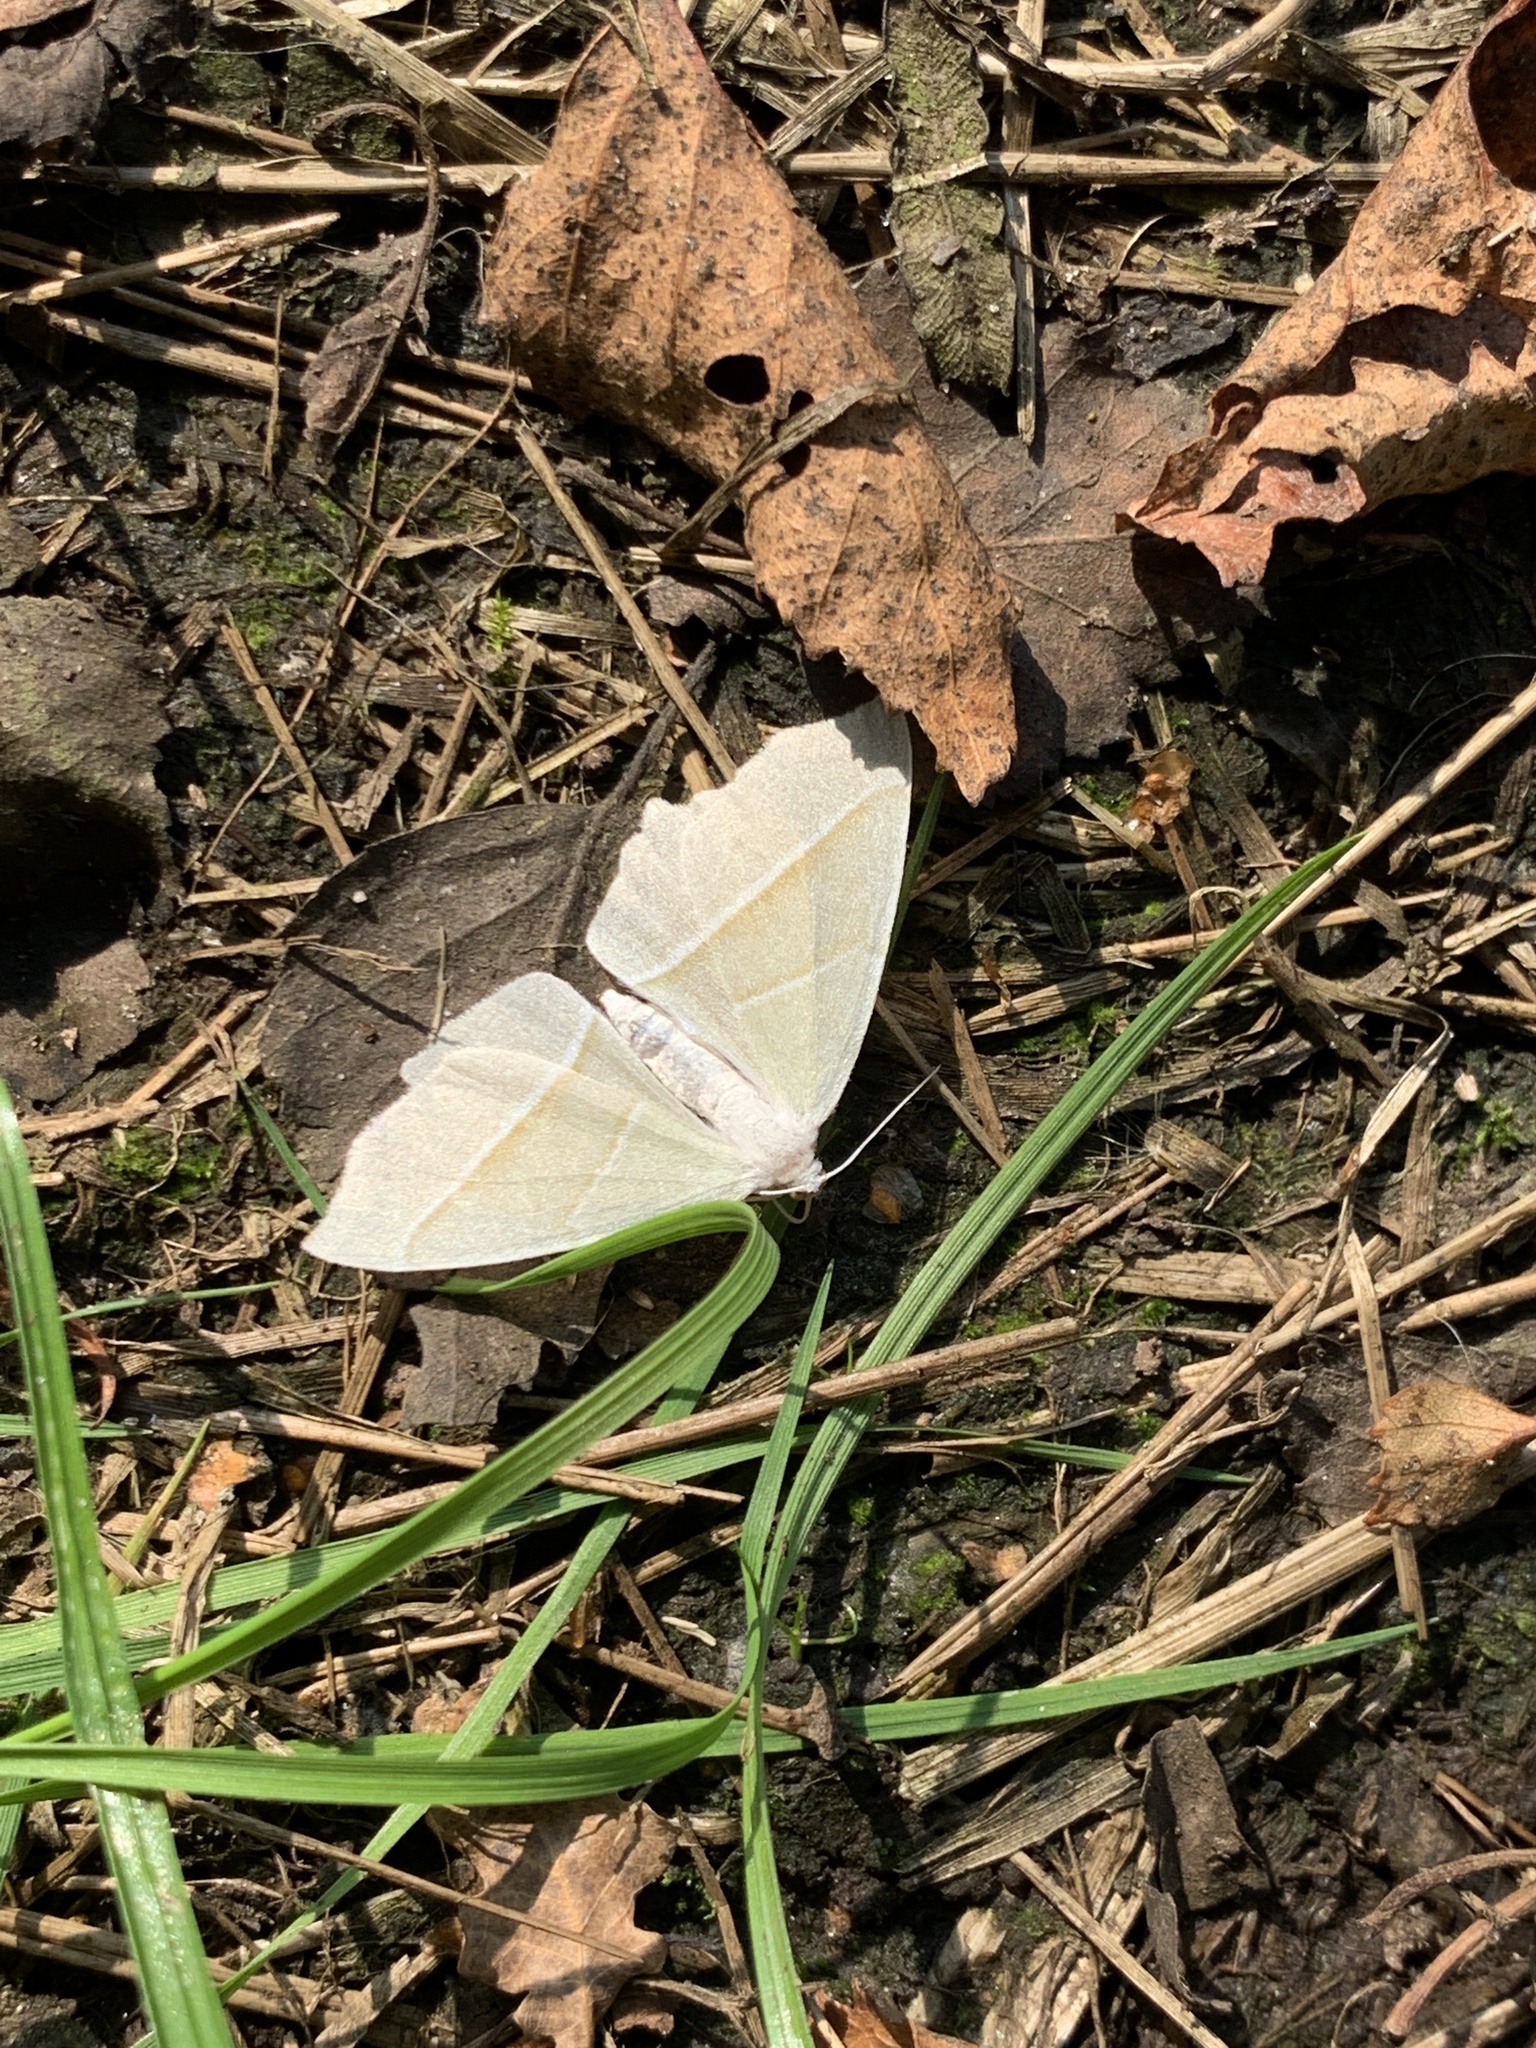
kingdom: Animalia
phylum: Arthropoda
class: Insecta
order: Lepidoptera
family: Geometridae
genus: Campaea
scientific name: Campaea margaritaria
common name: Light emerald
